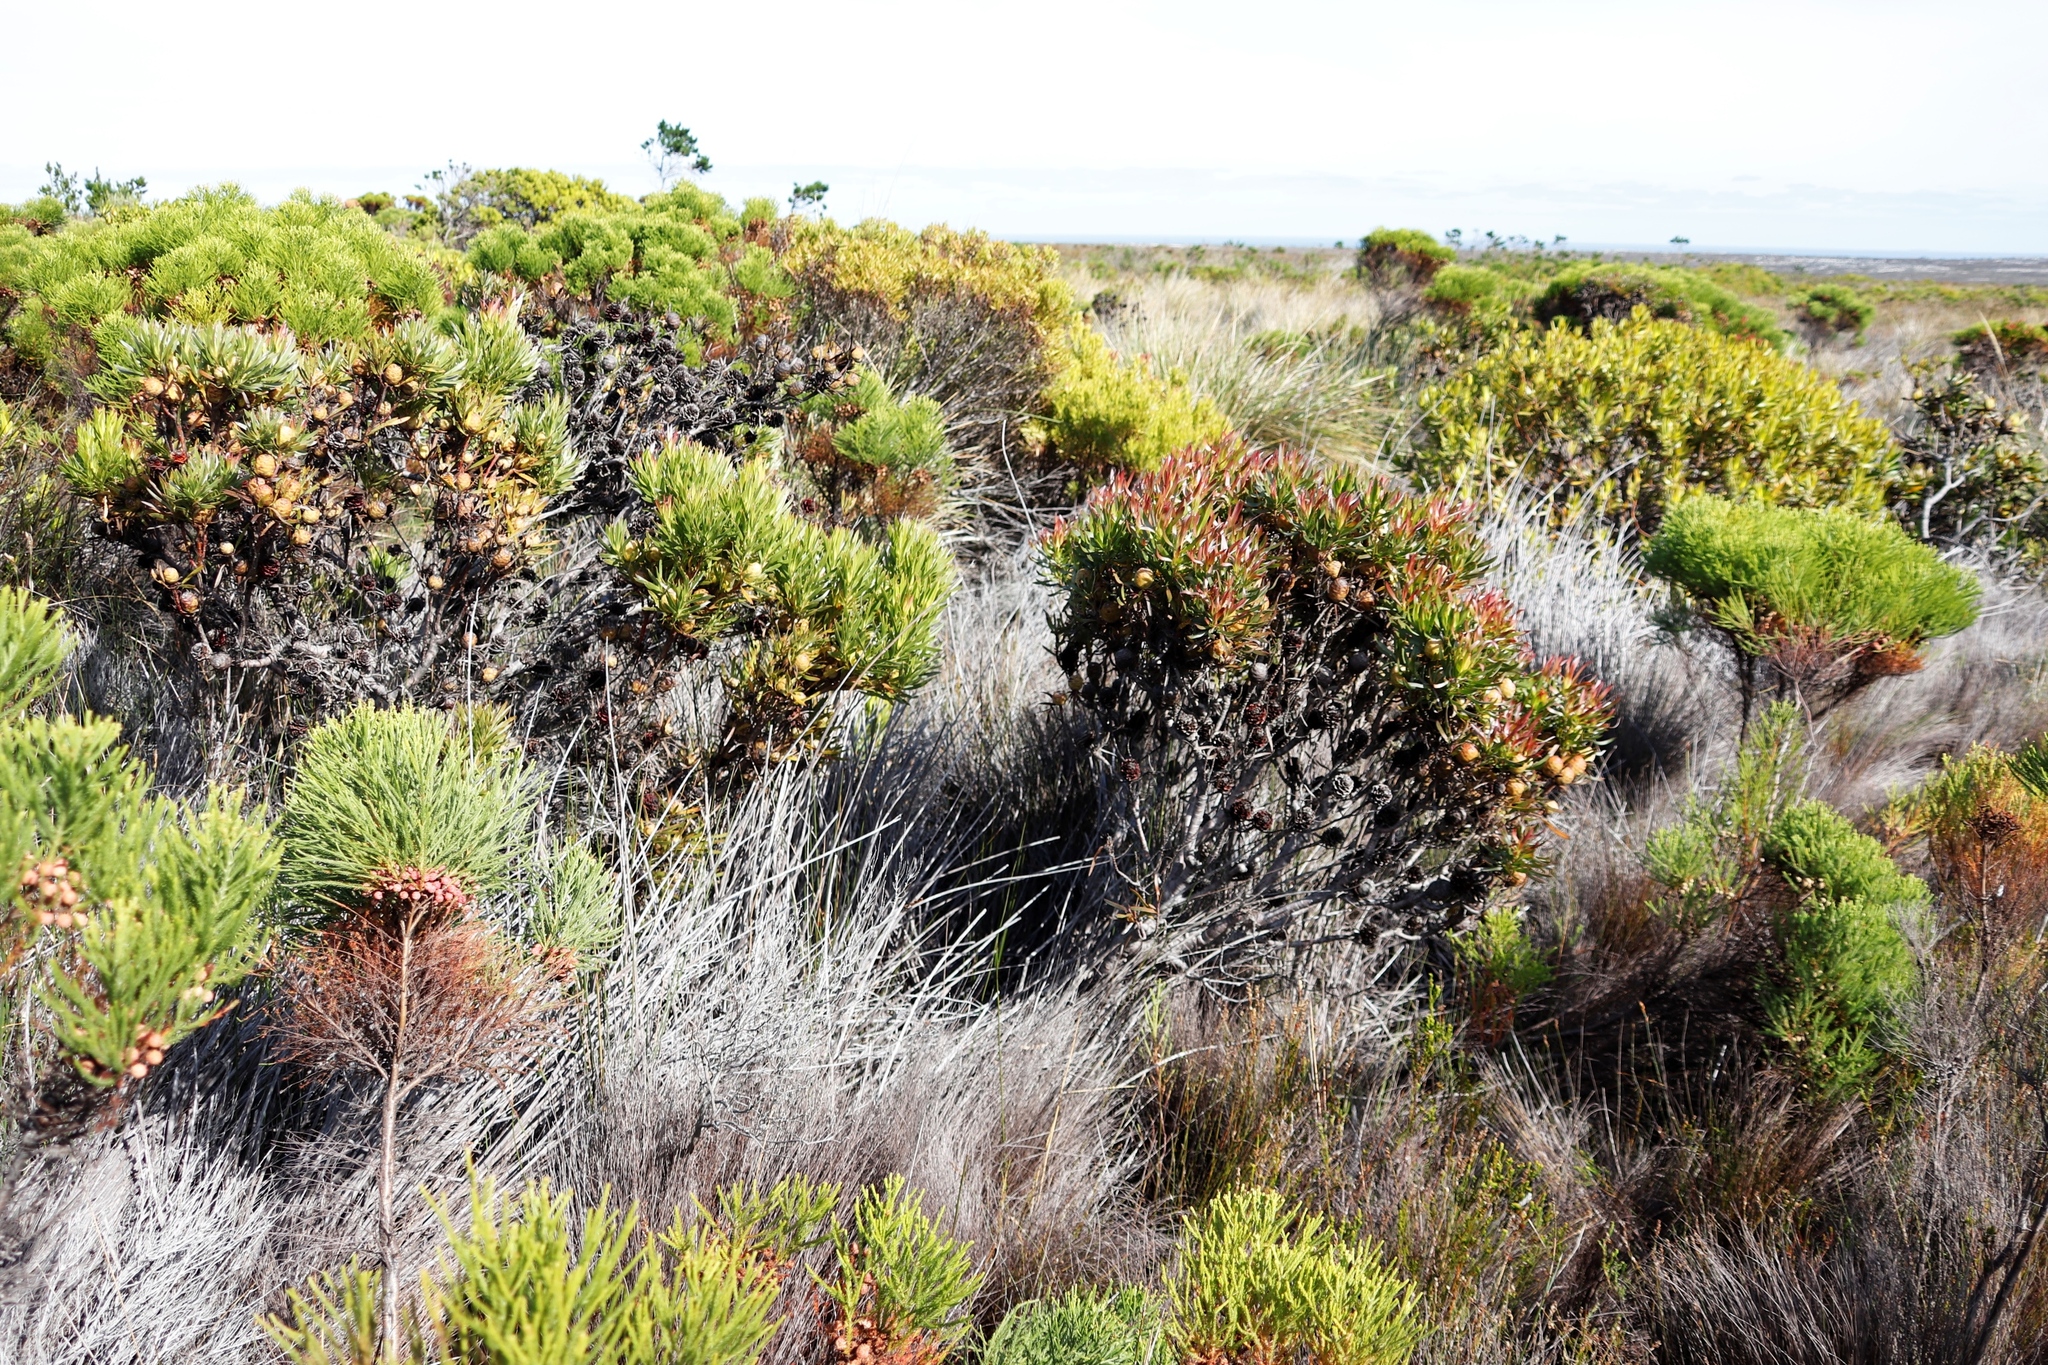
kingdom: Plantae
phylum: Tracheophyta
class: Magnoliopsida
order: Proteales
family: Proteaceae
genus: Leucadendron
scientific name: Leucadendron xanthoconus
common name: Sickle-leaf conebush
